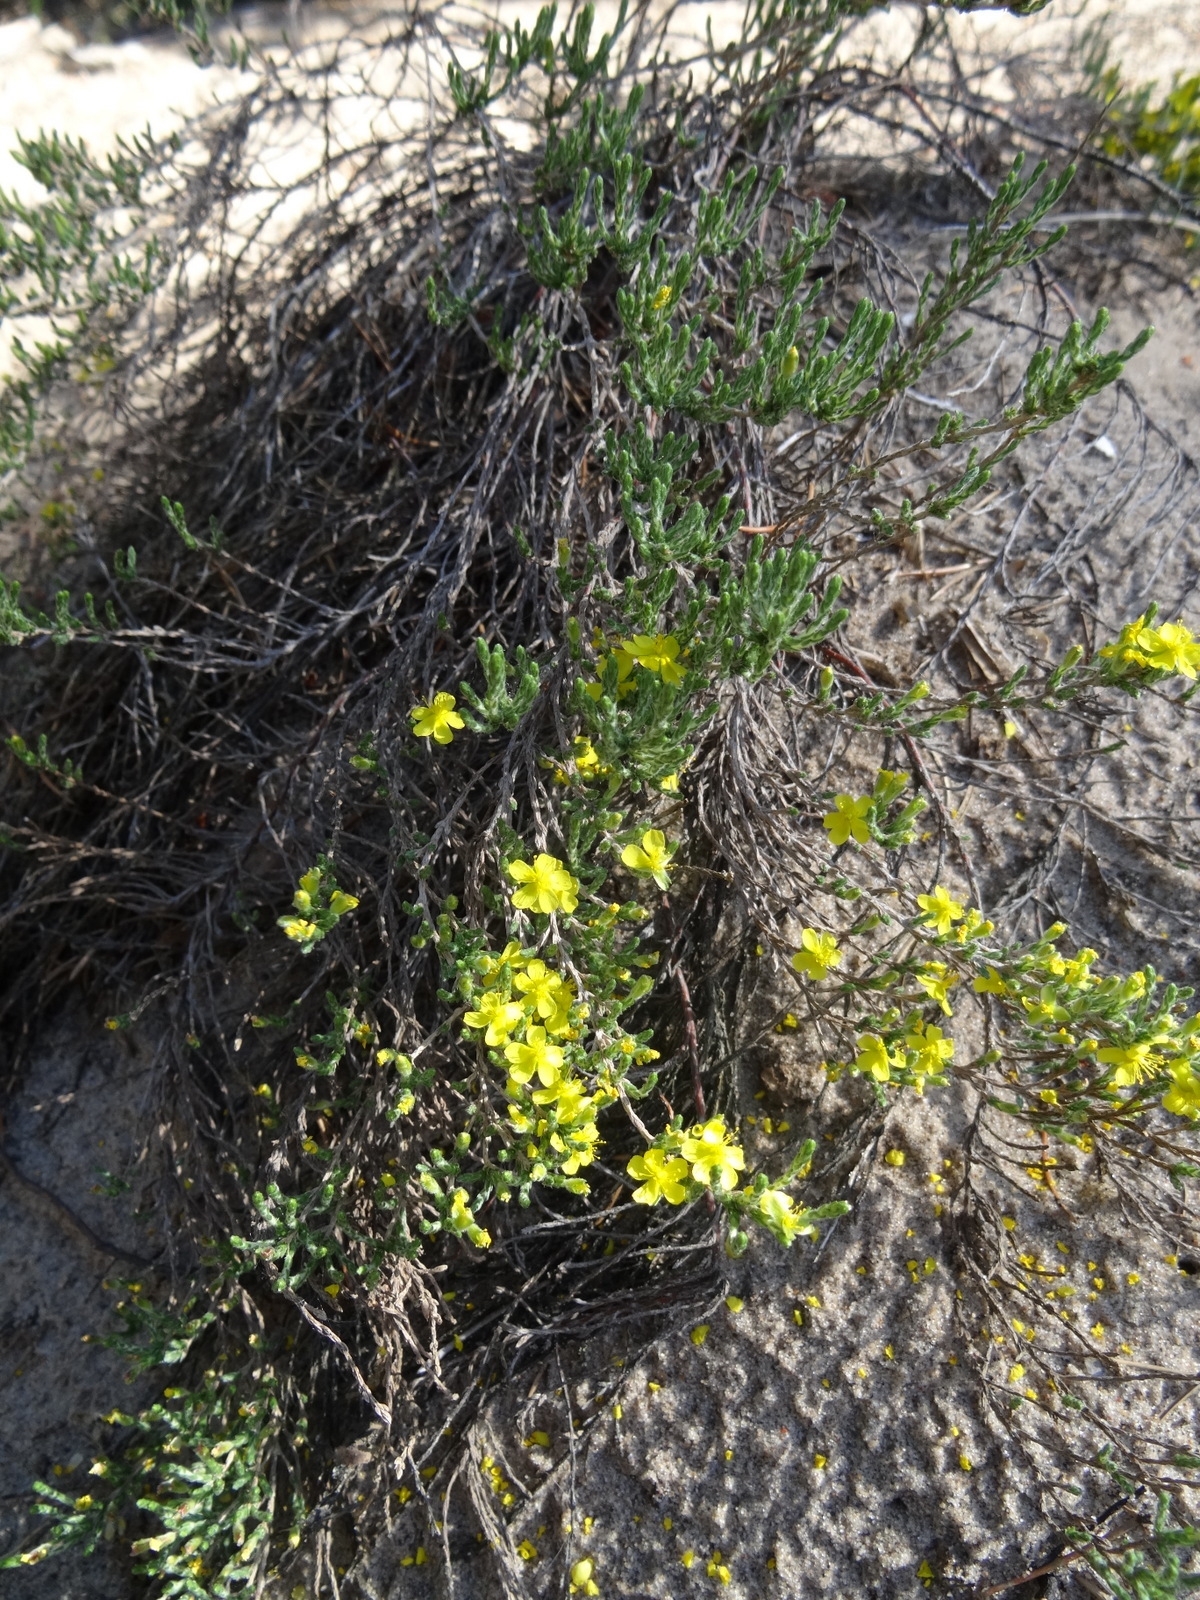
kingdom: Plantae
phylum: Tracheophyta
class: Magnoliopsida
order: Malvales
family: Cistaceae
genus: Hudsonia
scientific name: Hudsonia tomentosa
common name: Beach-heath
